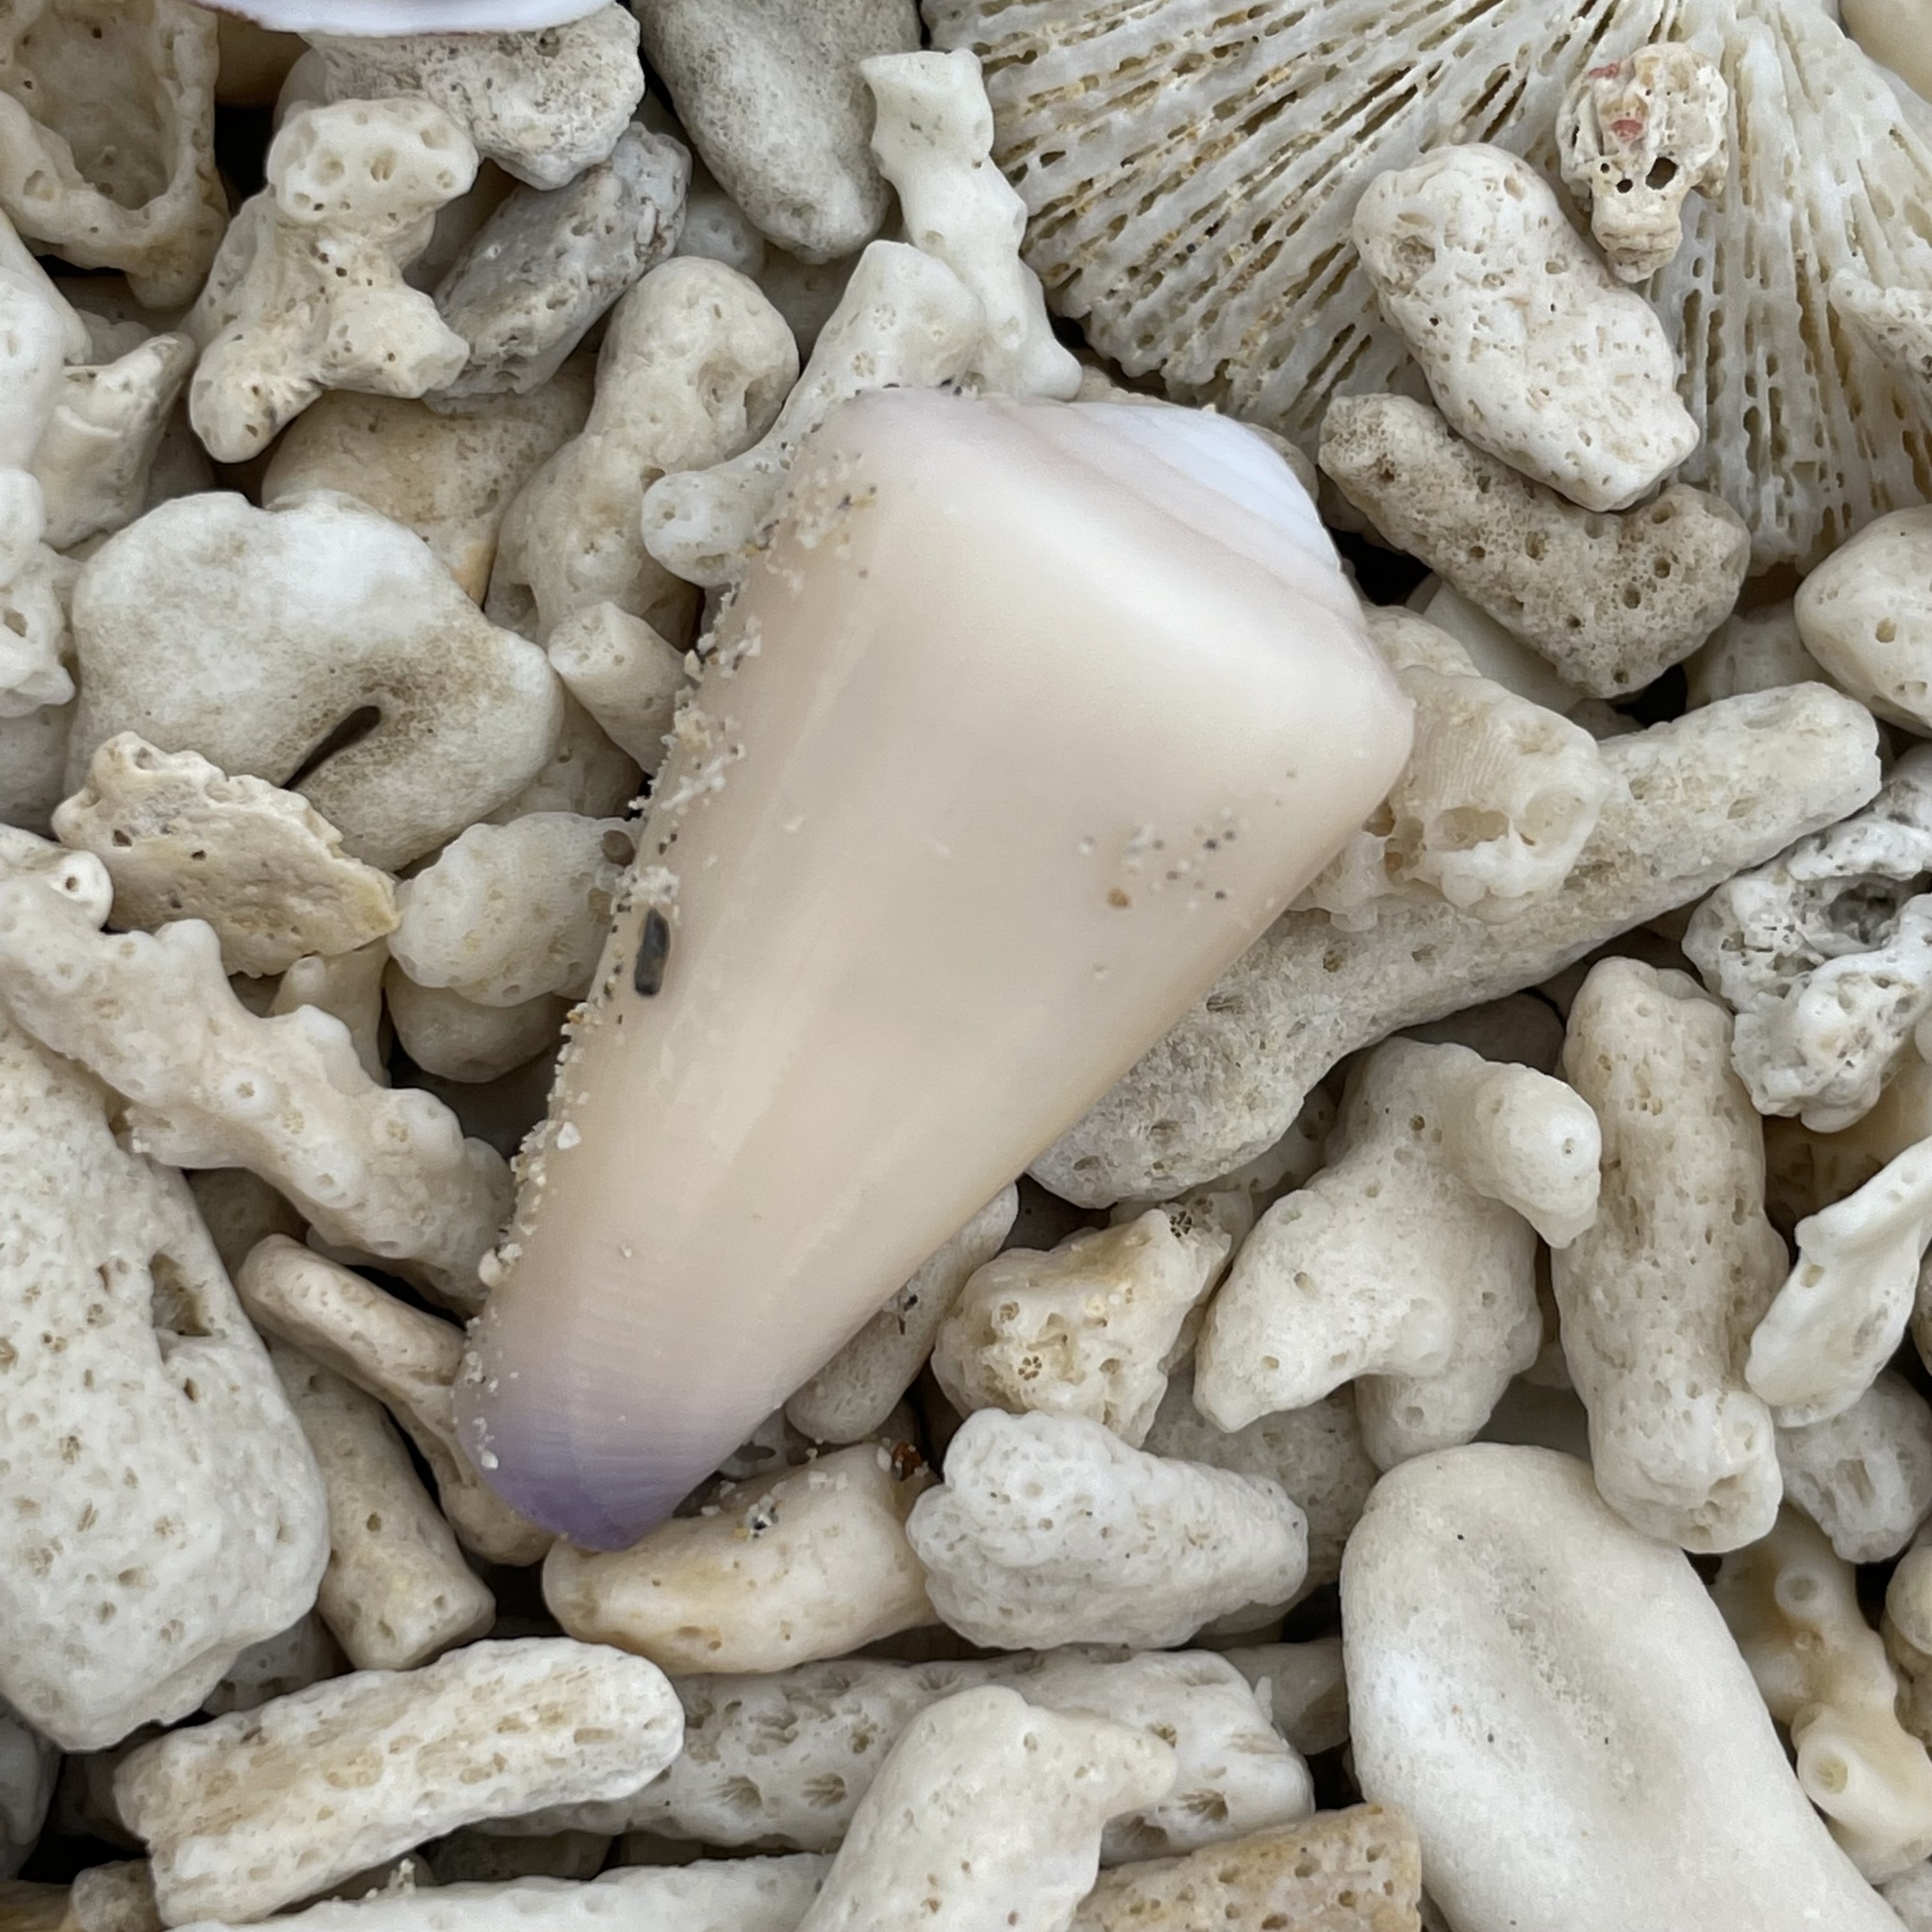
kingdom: Animalia
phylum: Mollusca
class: Gastropoda
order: Neogastropoda
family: Conidae
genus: Conus
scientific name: Conus emaciatus
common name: False virgin cone
